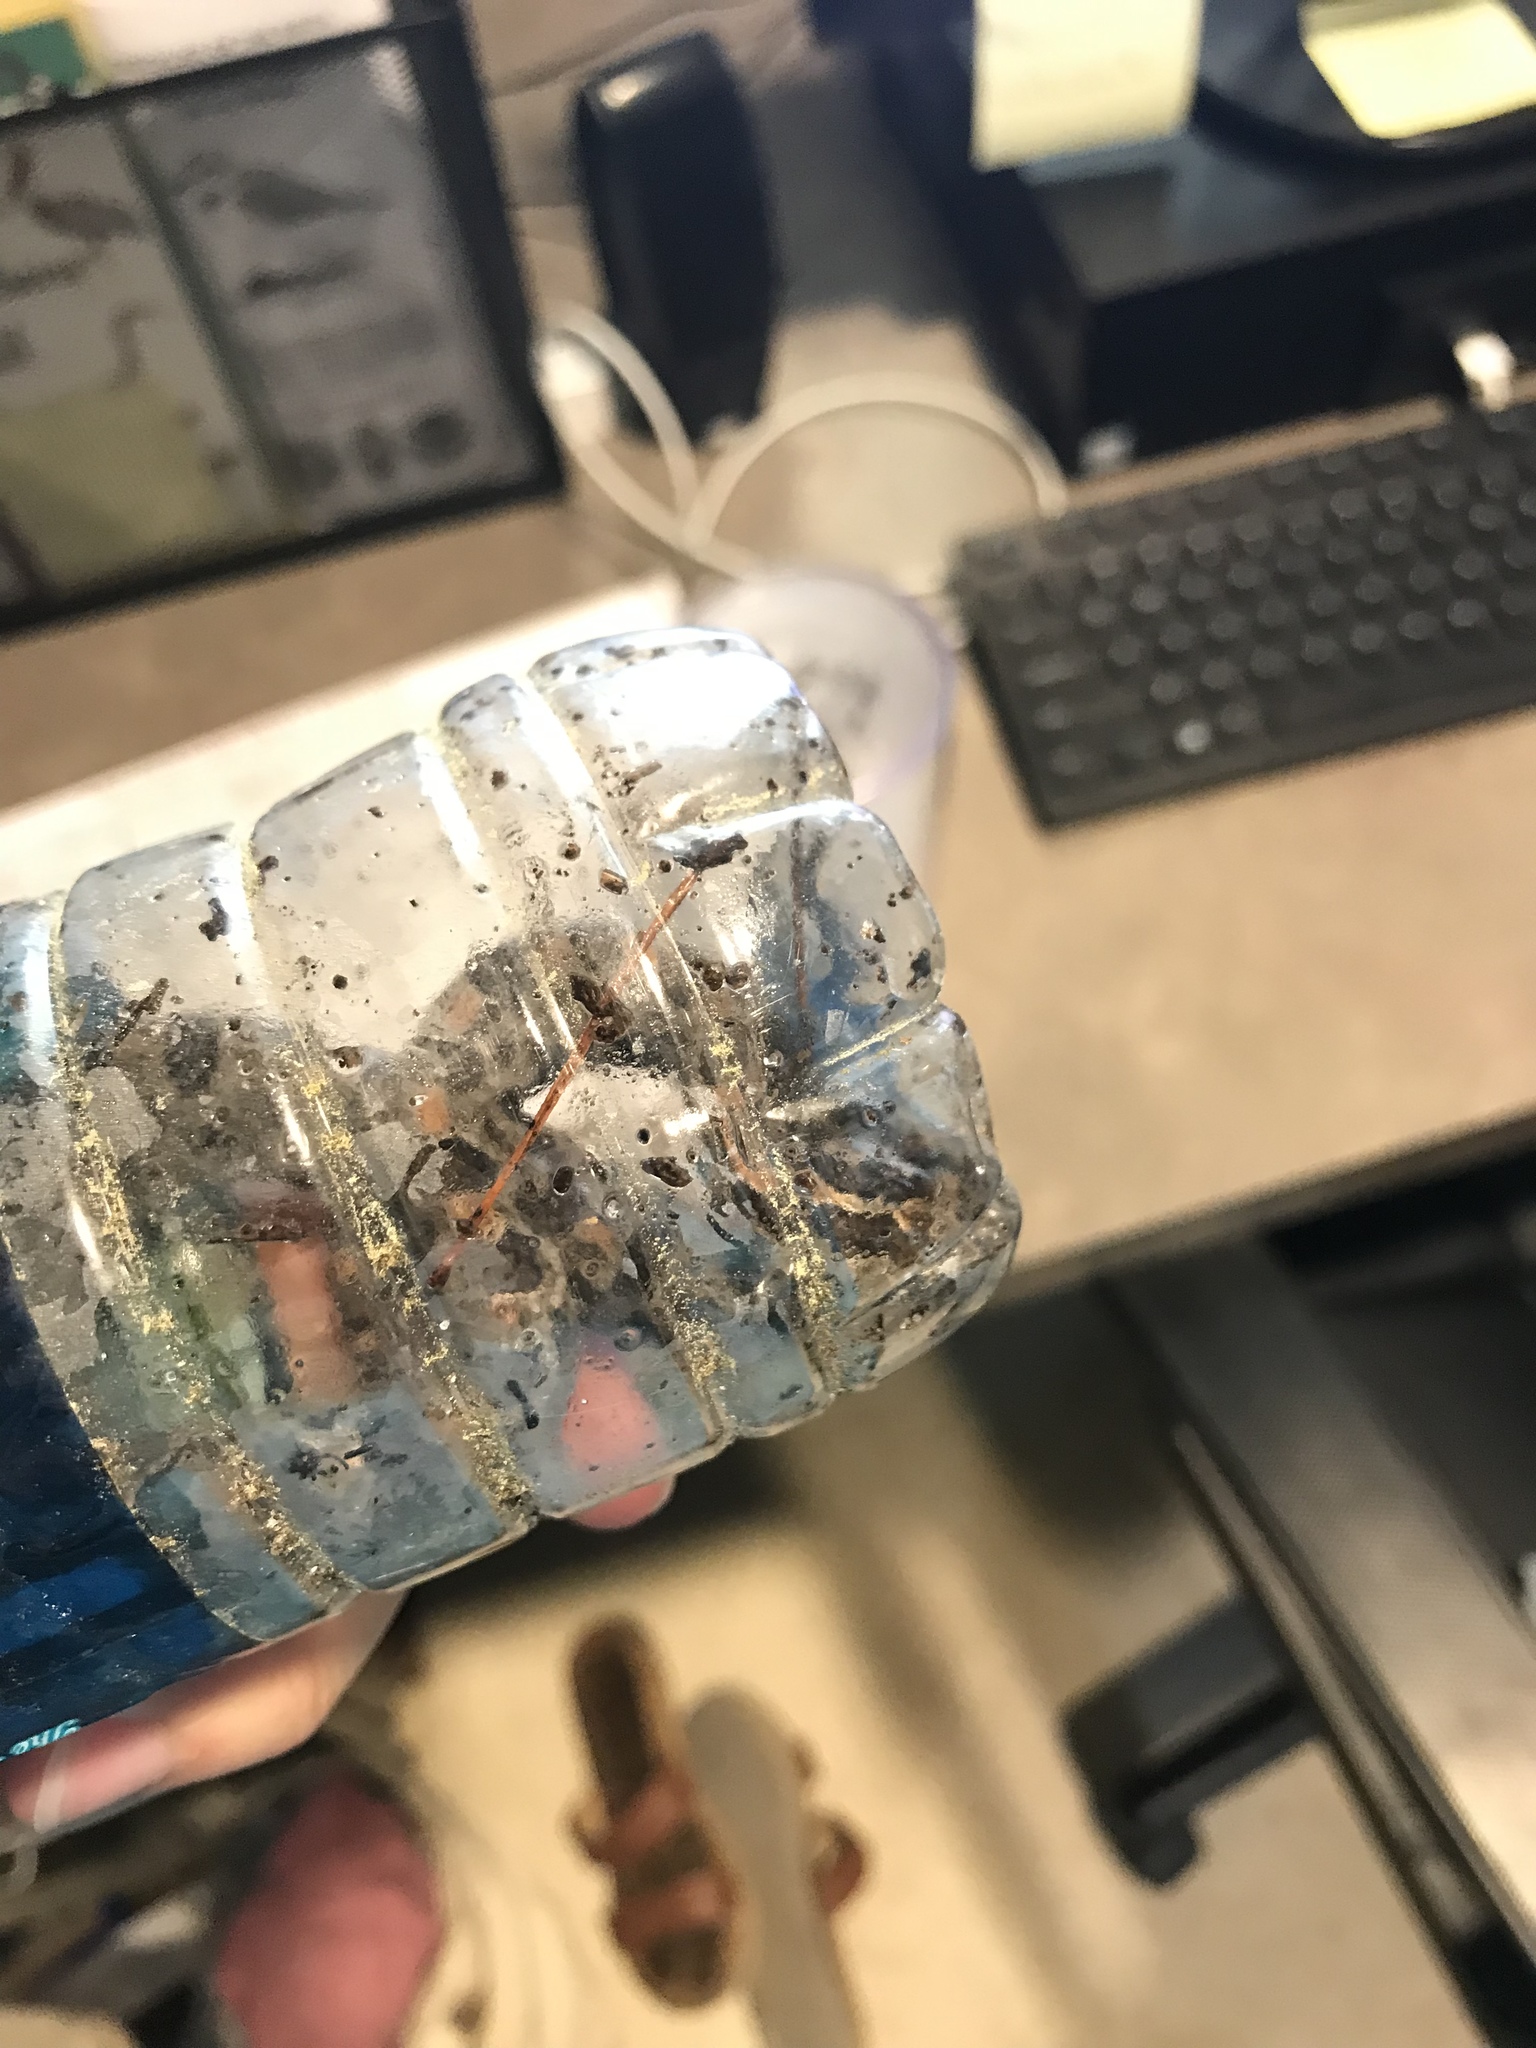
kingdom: Animalia
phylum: Chordata
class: Squamata
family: Viperidae
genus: Sistrurus
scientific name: Sistrurus miliarius
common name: Pygmy rattlesnake
